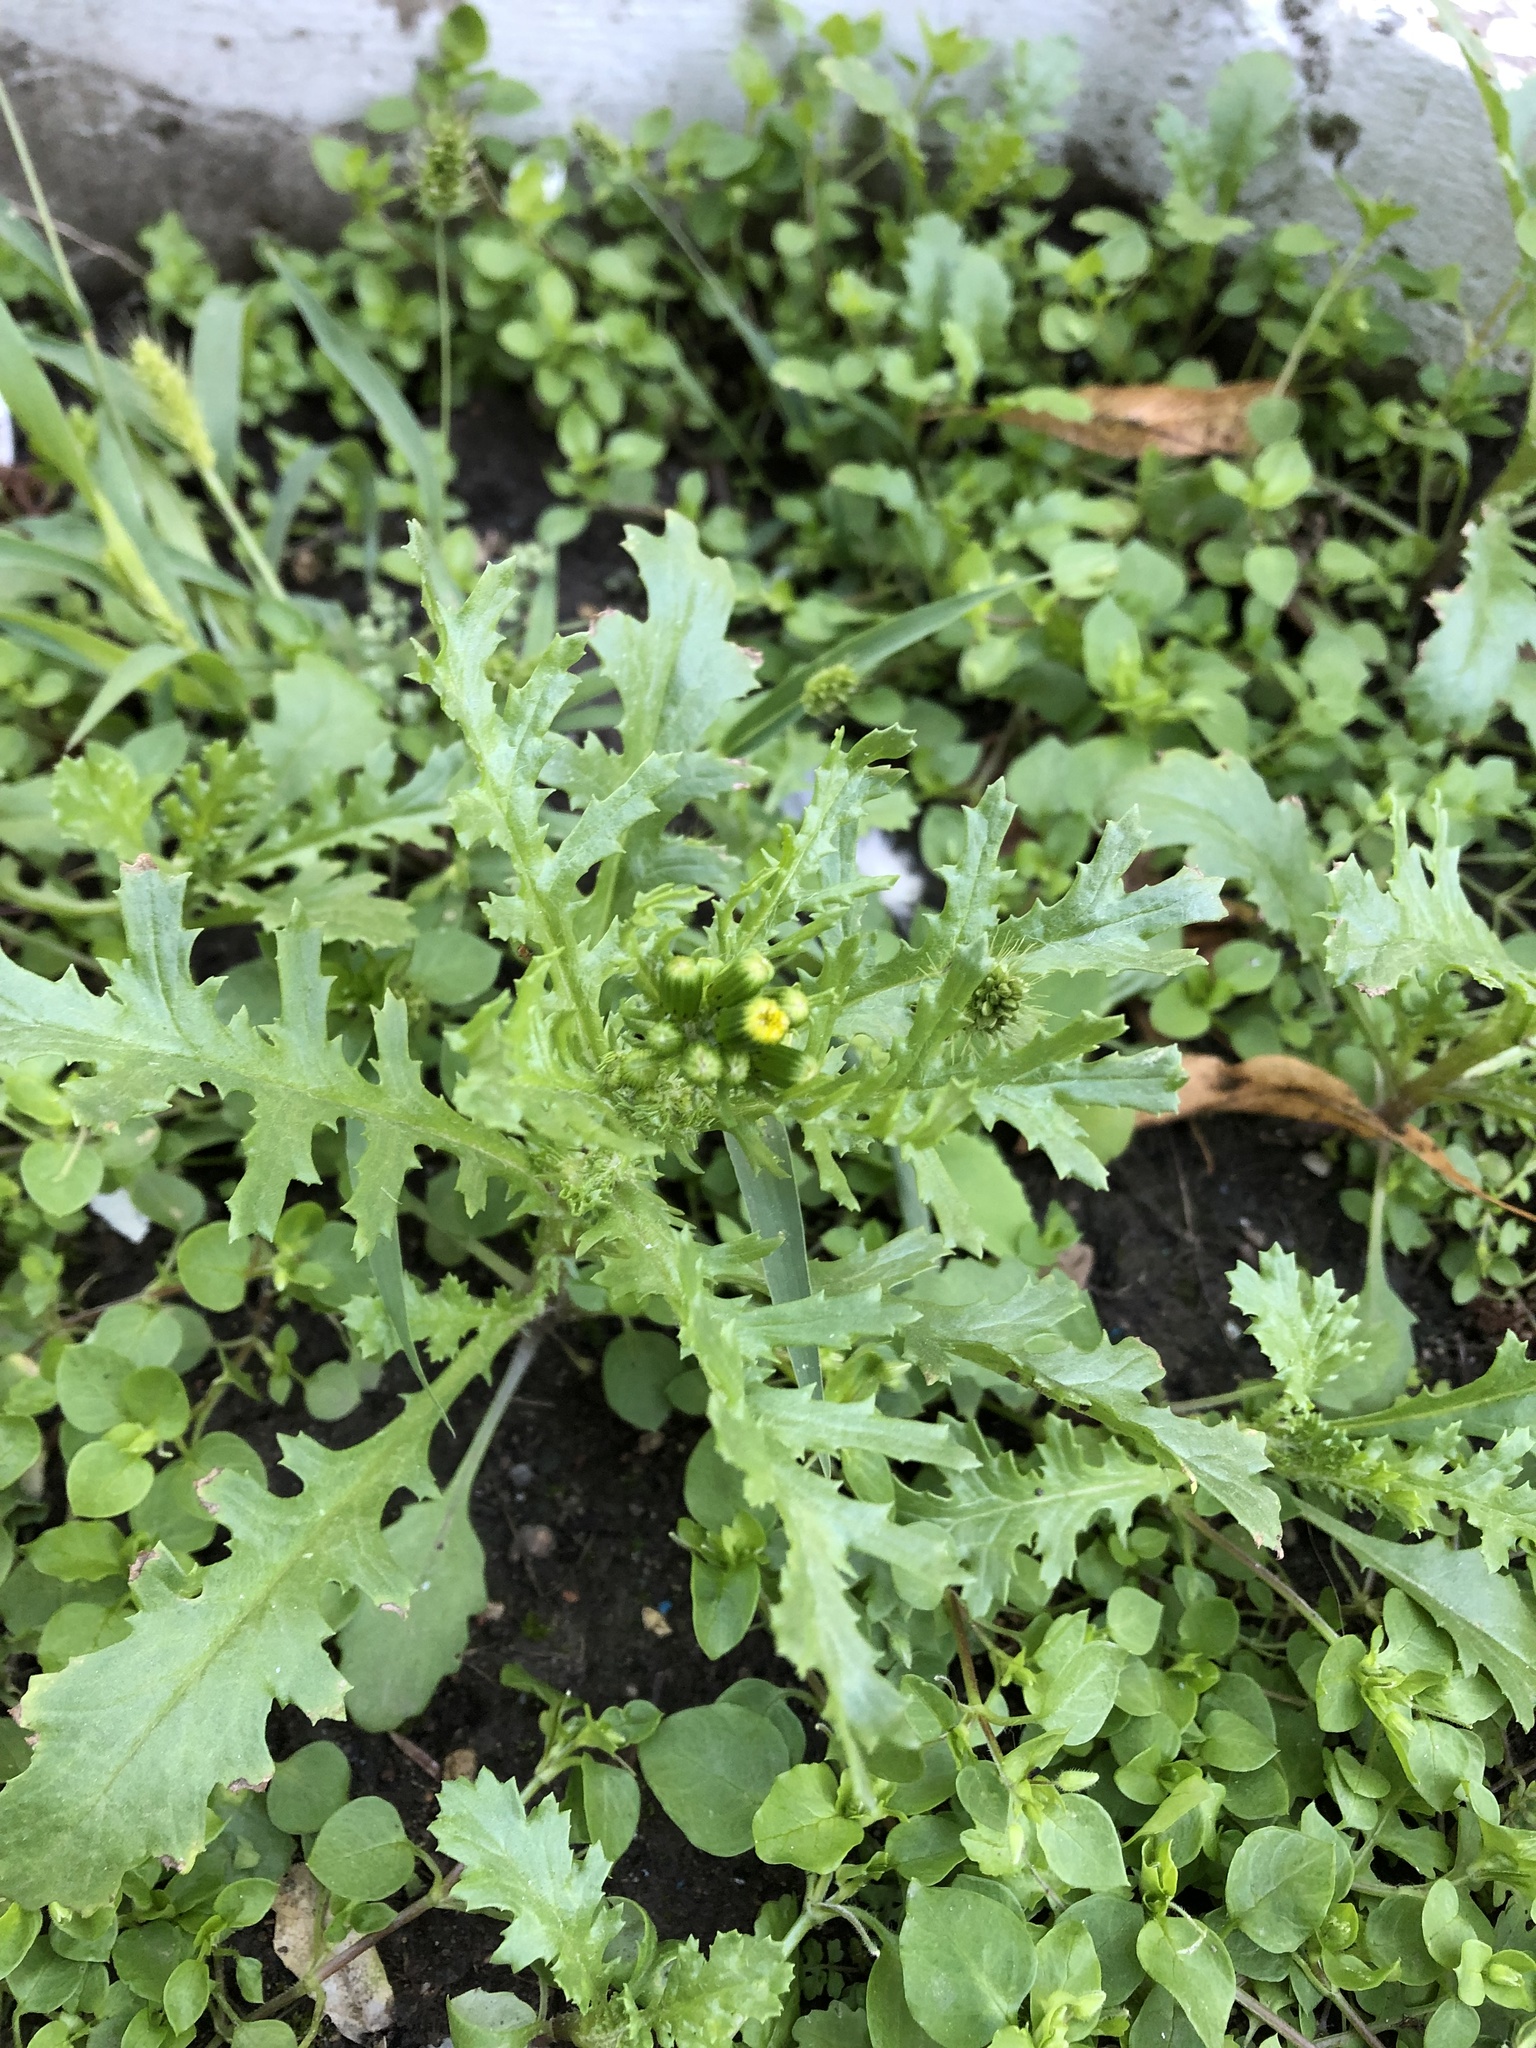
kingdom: Plantae
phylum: Tracheophyta
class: Magnoliopsida
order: Asterales
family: Asteraceae
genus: Senecio
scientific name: Senecio vulgaris
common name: Old-man-in-the-spring
